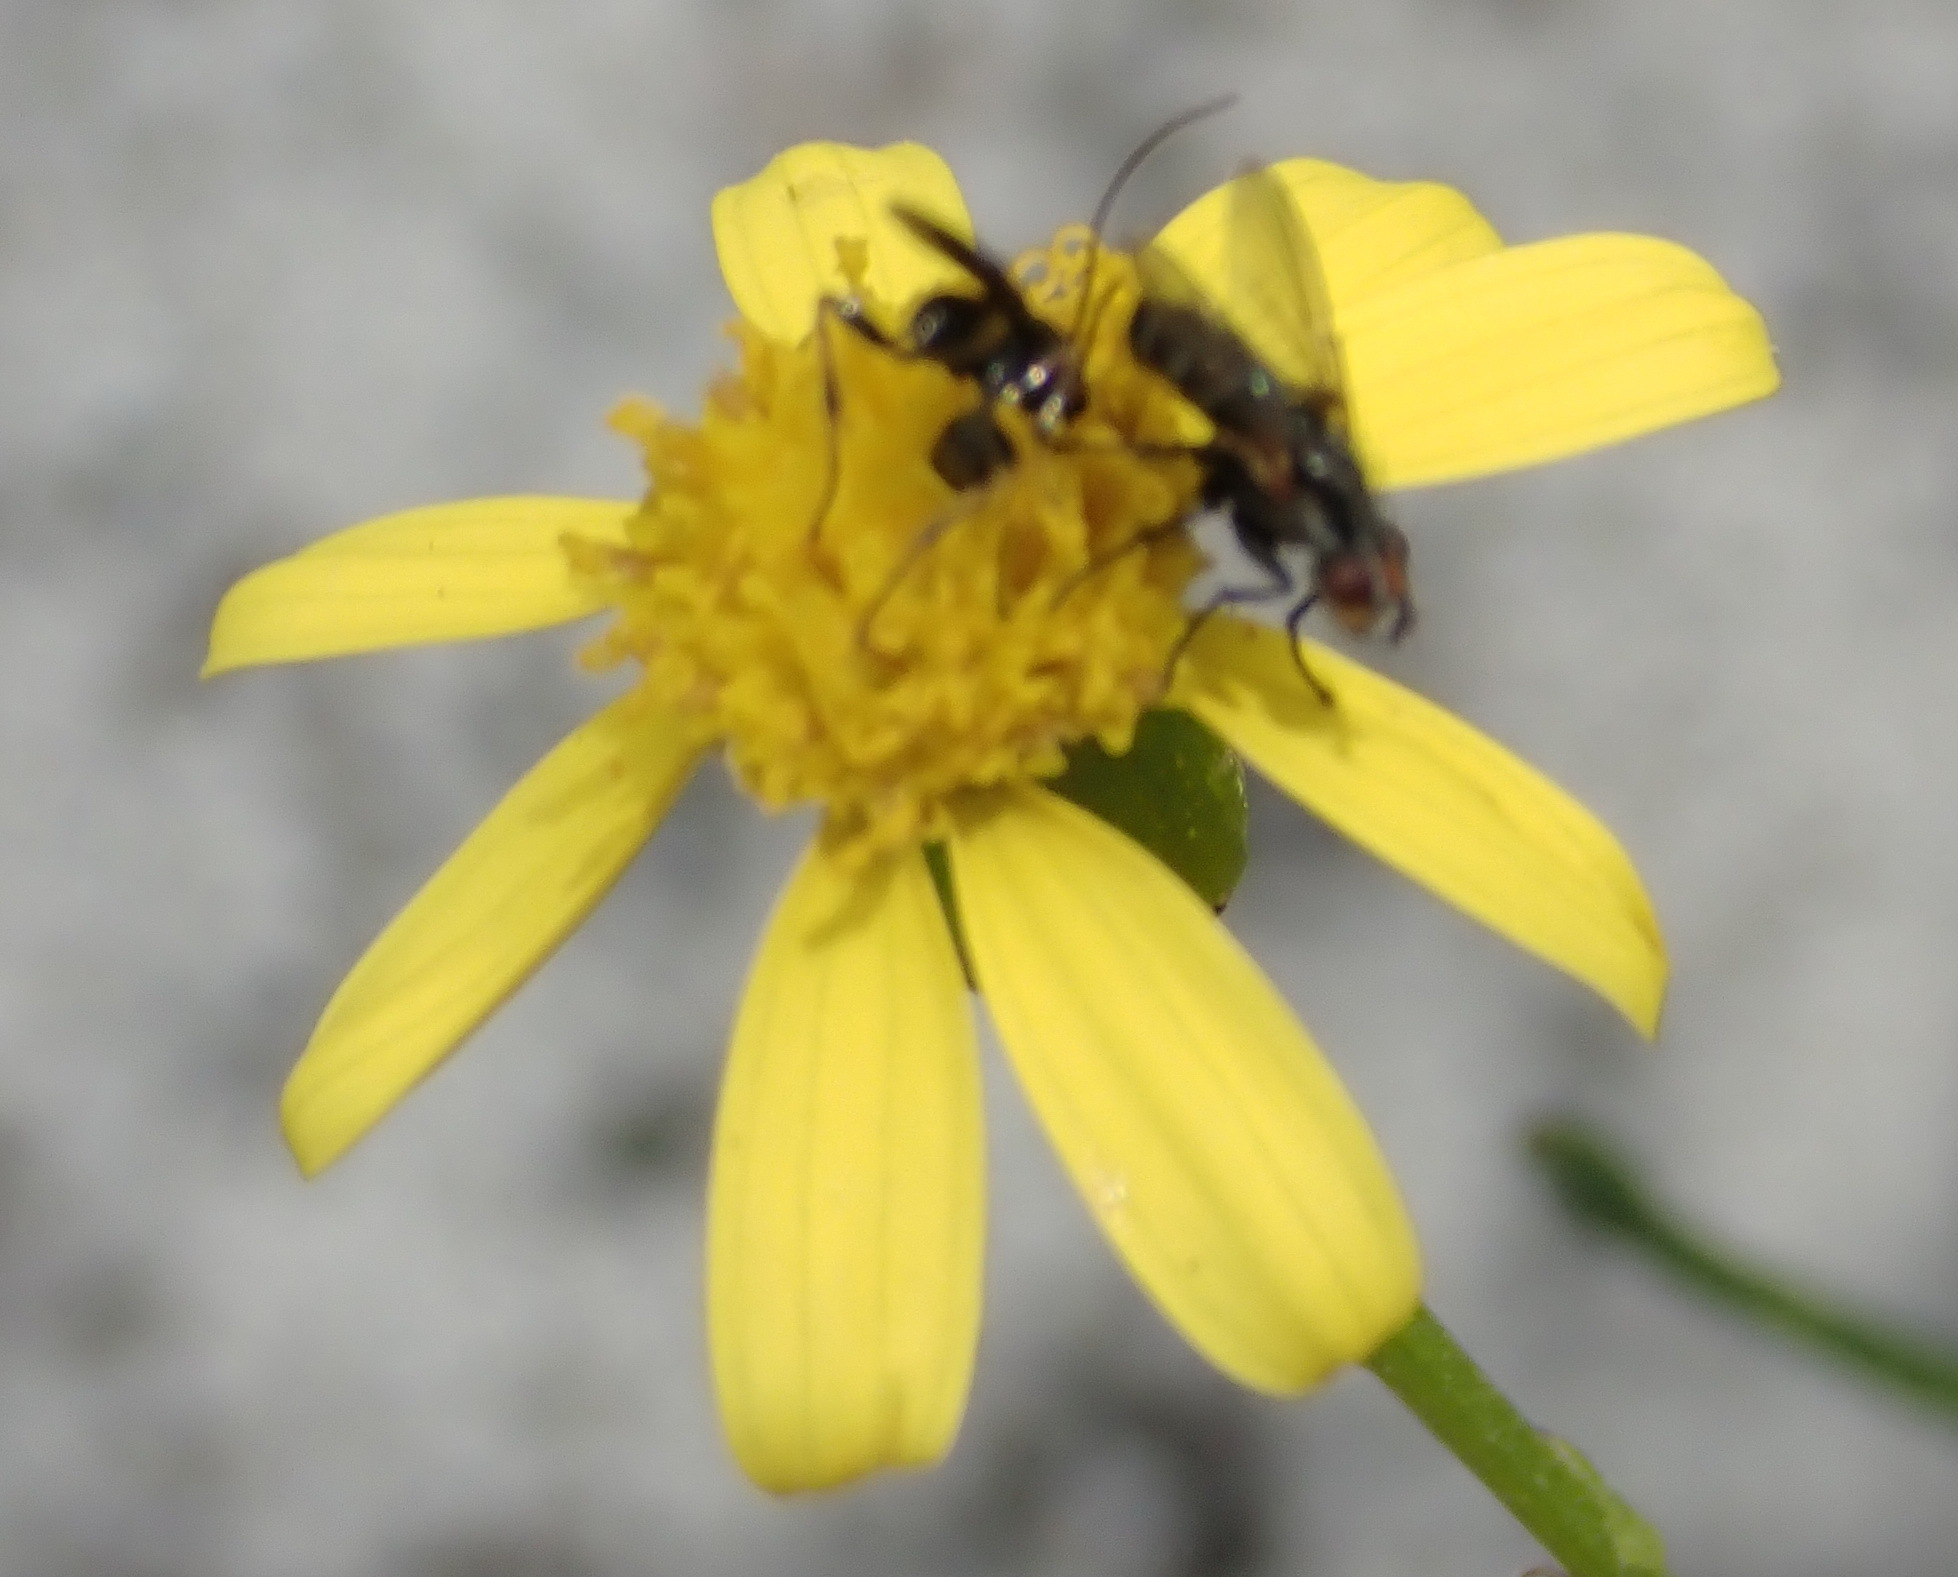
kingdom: Plantae
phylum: Tracheophyta
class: Magnoliopsida
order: Asterales
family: Asteraceae
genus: Senecio
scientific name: Senecio burchellii
